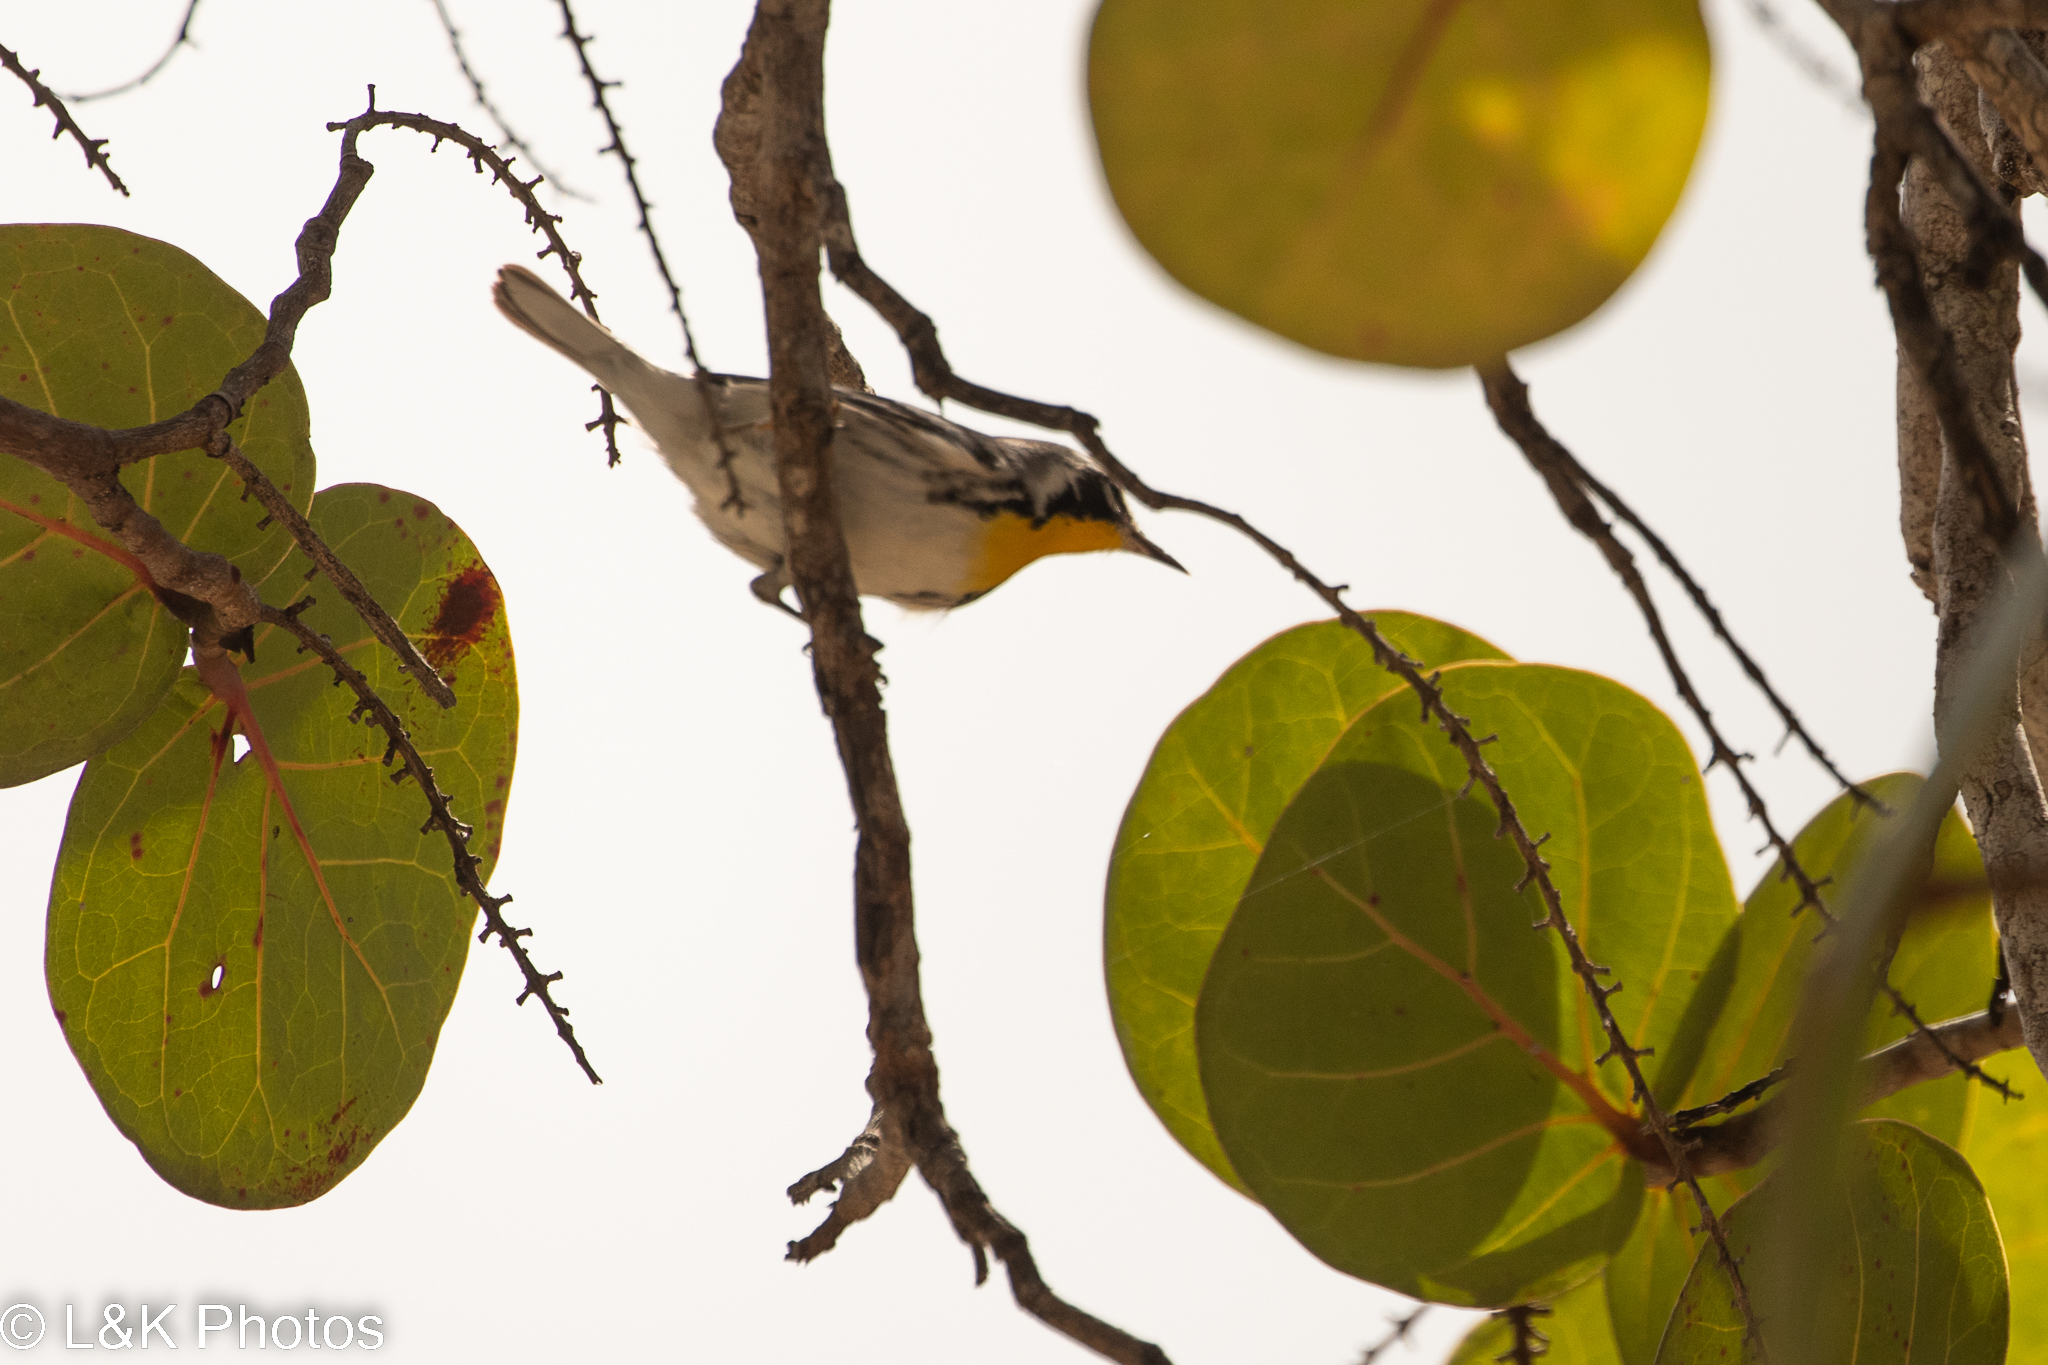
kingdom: Animalia
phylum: Chordata
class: Aves
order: Passeriformes
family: Parulidae
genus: Setophaga
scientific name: Setophaga dominica
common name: Yellow-throated warbler
